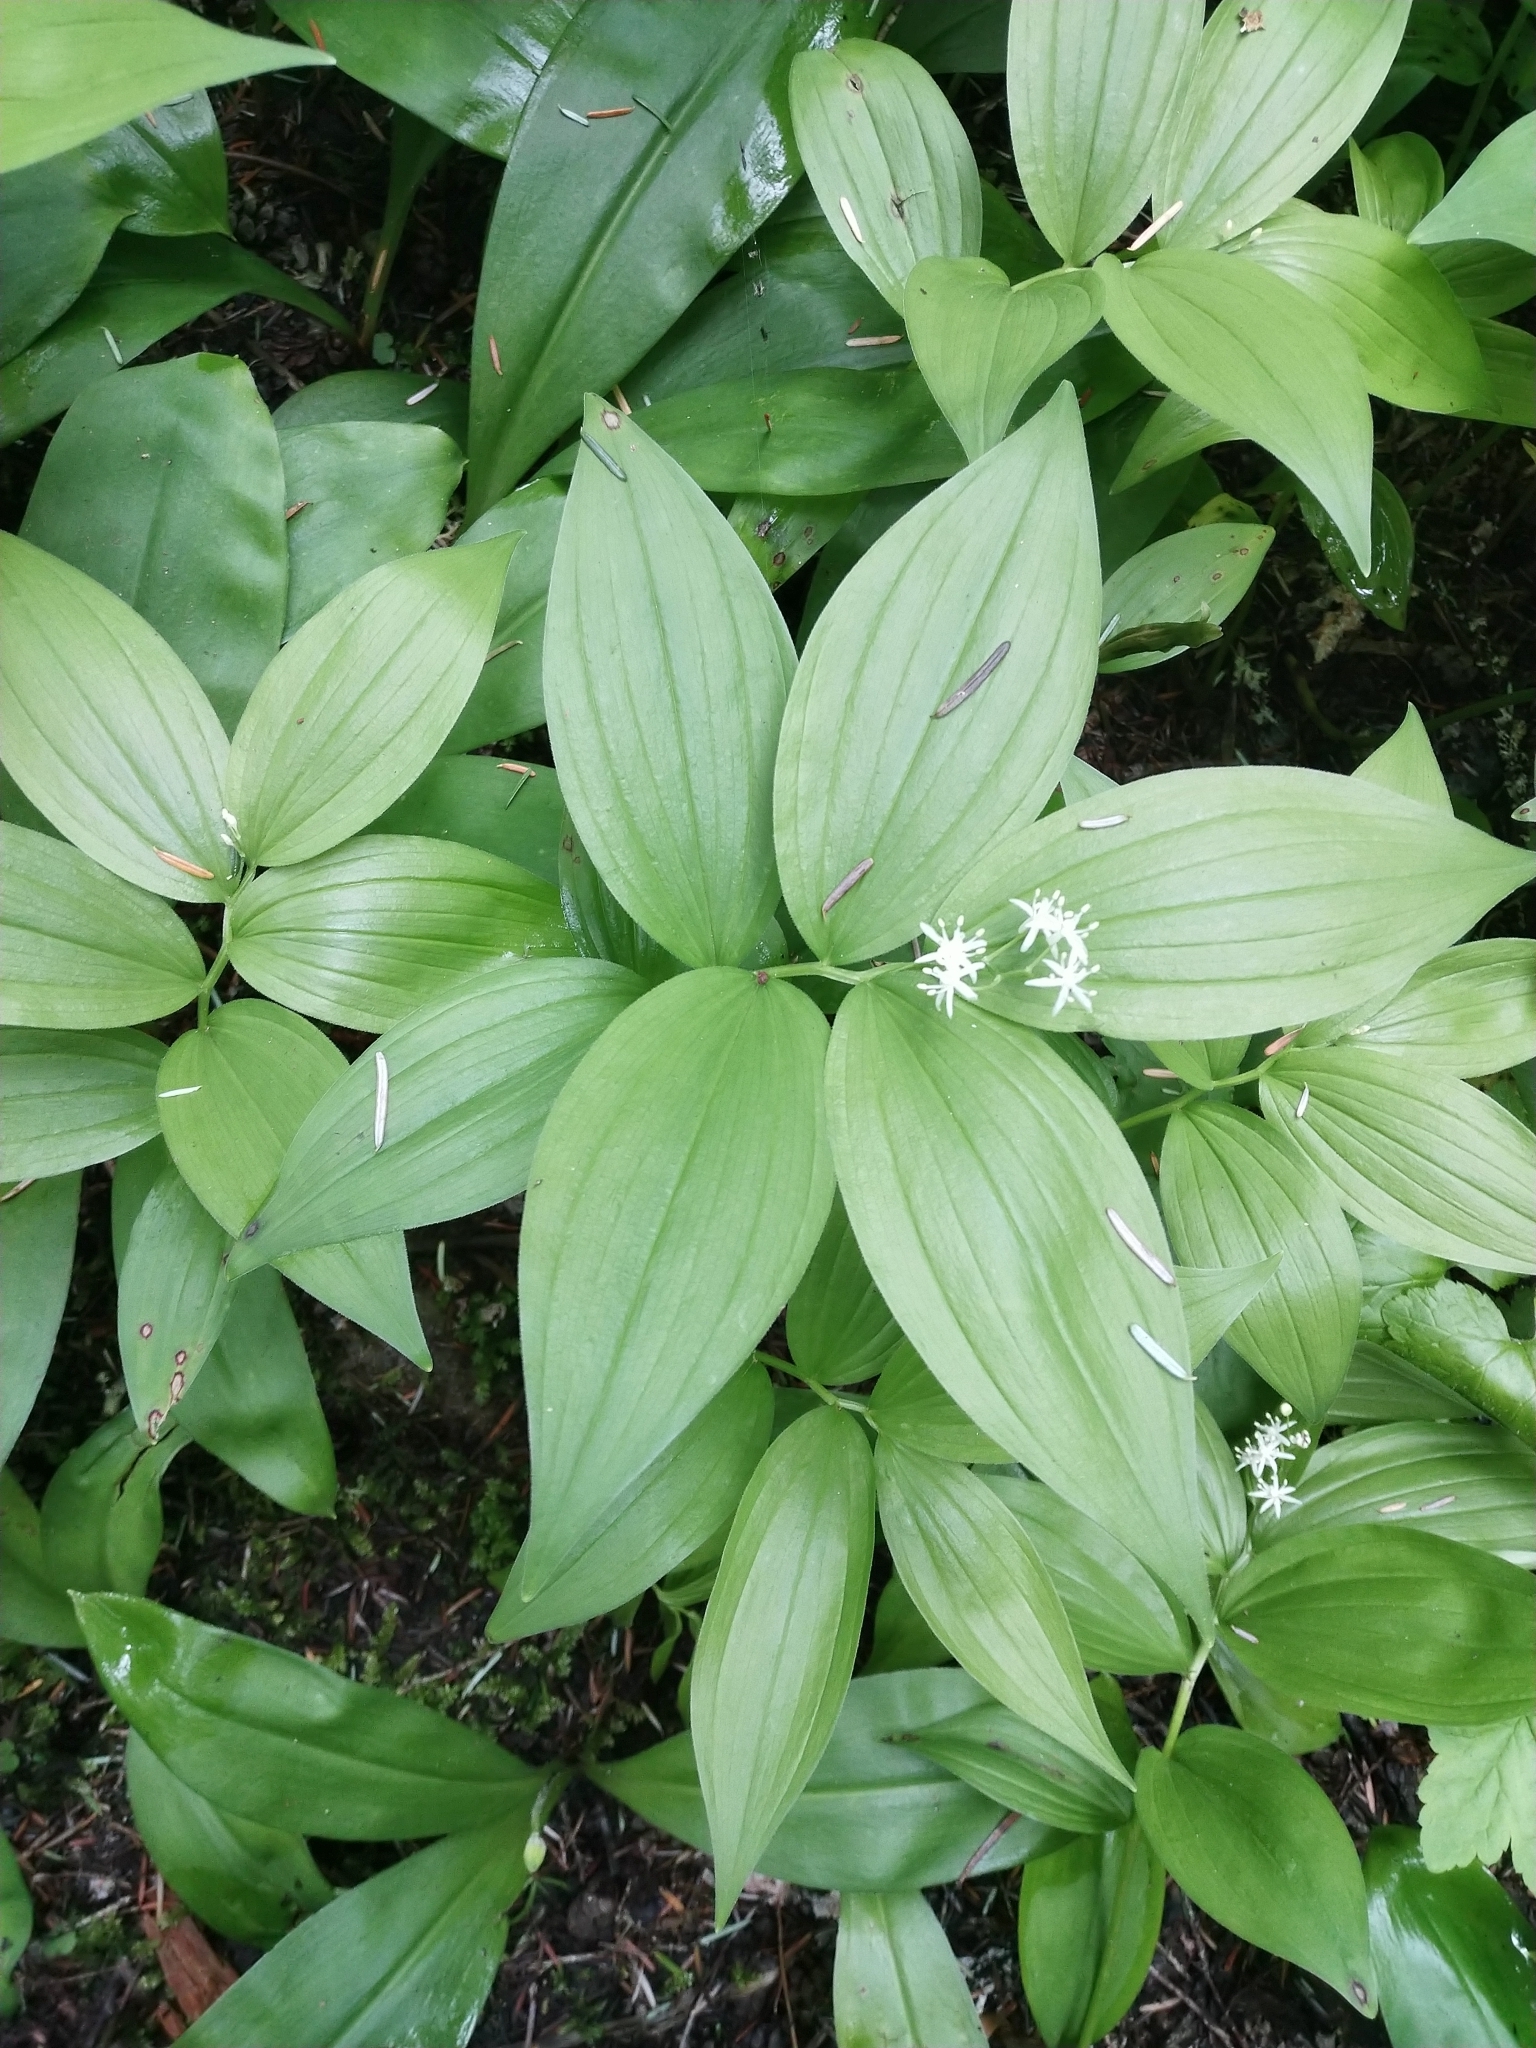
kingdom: Plantae
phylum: Tracheophyta
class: Liliopsida
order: Asparagales
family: Asparagaceae
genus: Maianthemum
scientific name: Maianthemum stellatum
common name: Little false solomon's seal
